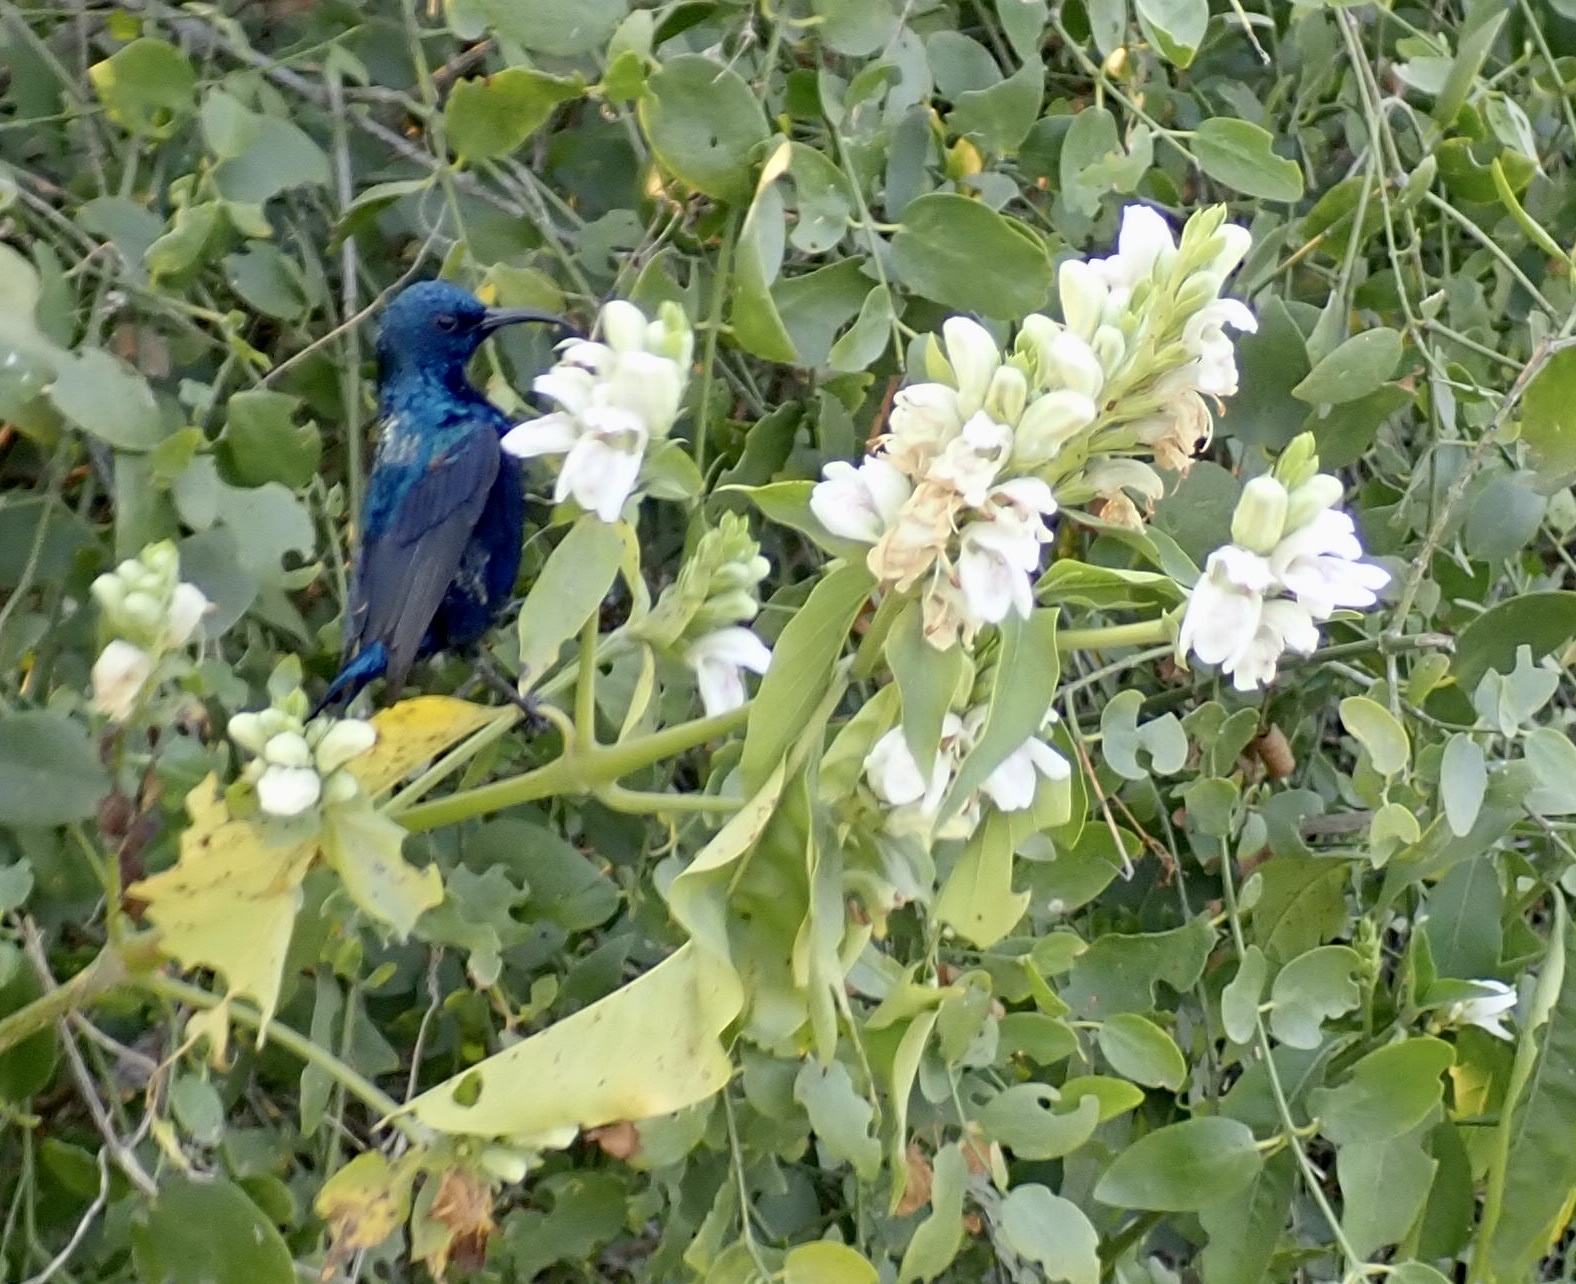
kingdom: Animalia
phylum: Chordata
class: Aves
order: Passeriformes
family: Nectariniidae
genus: Cinnyris
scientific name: Cinnyris asiaticus
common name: Purple sunbird
